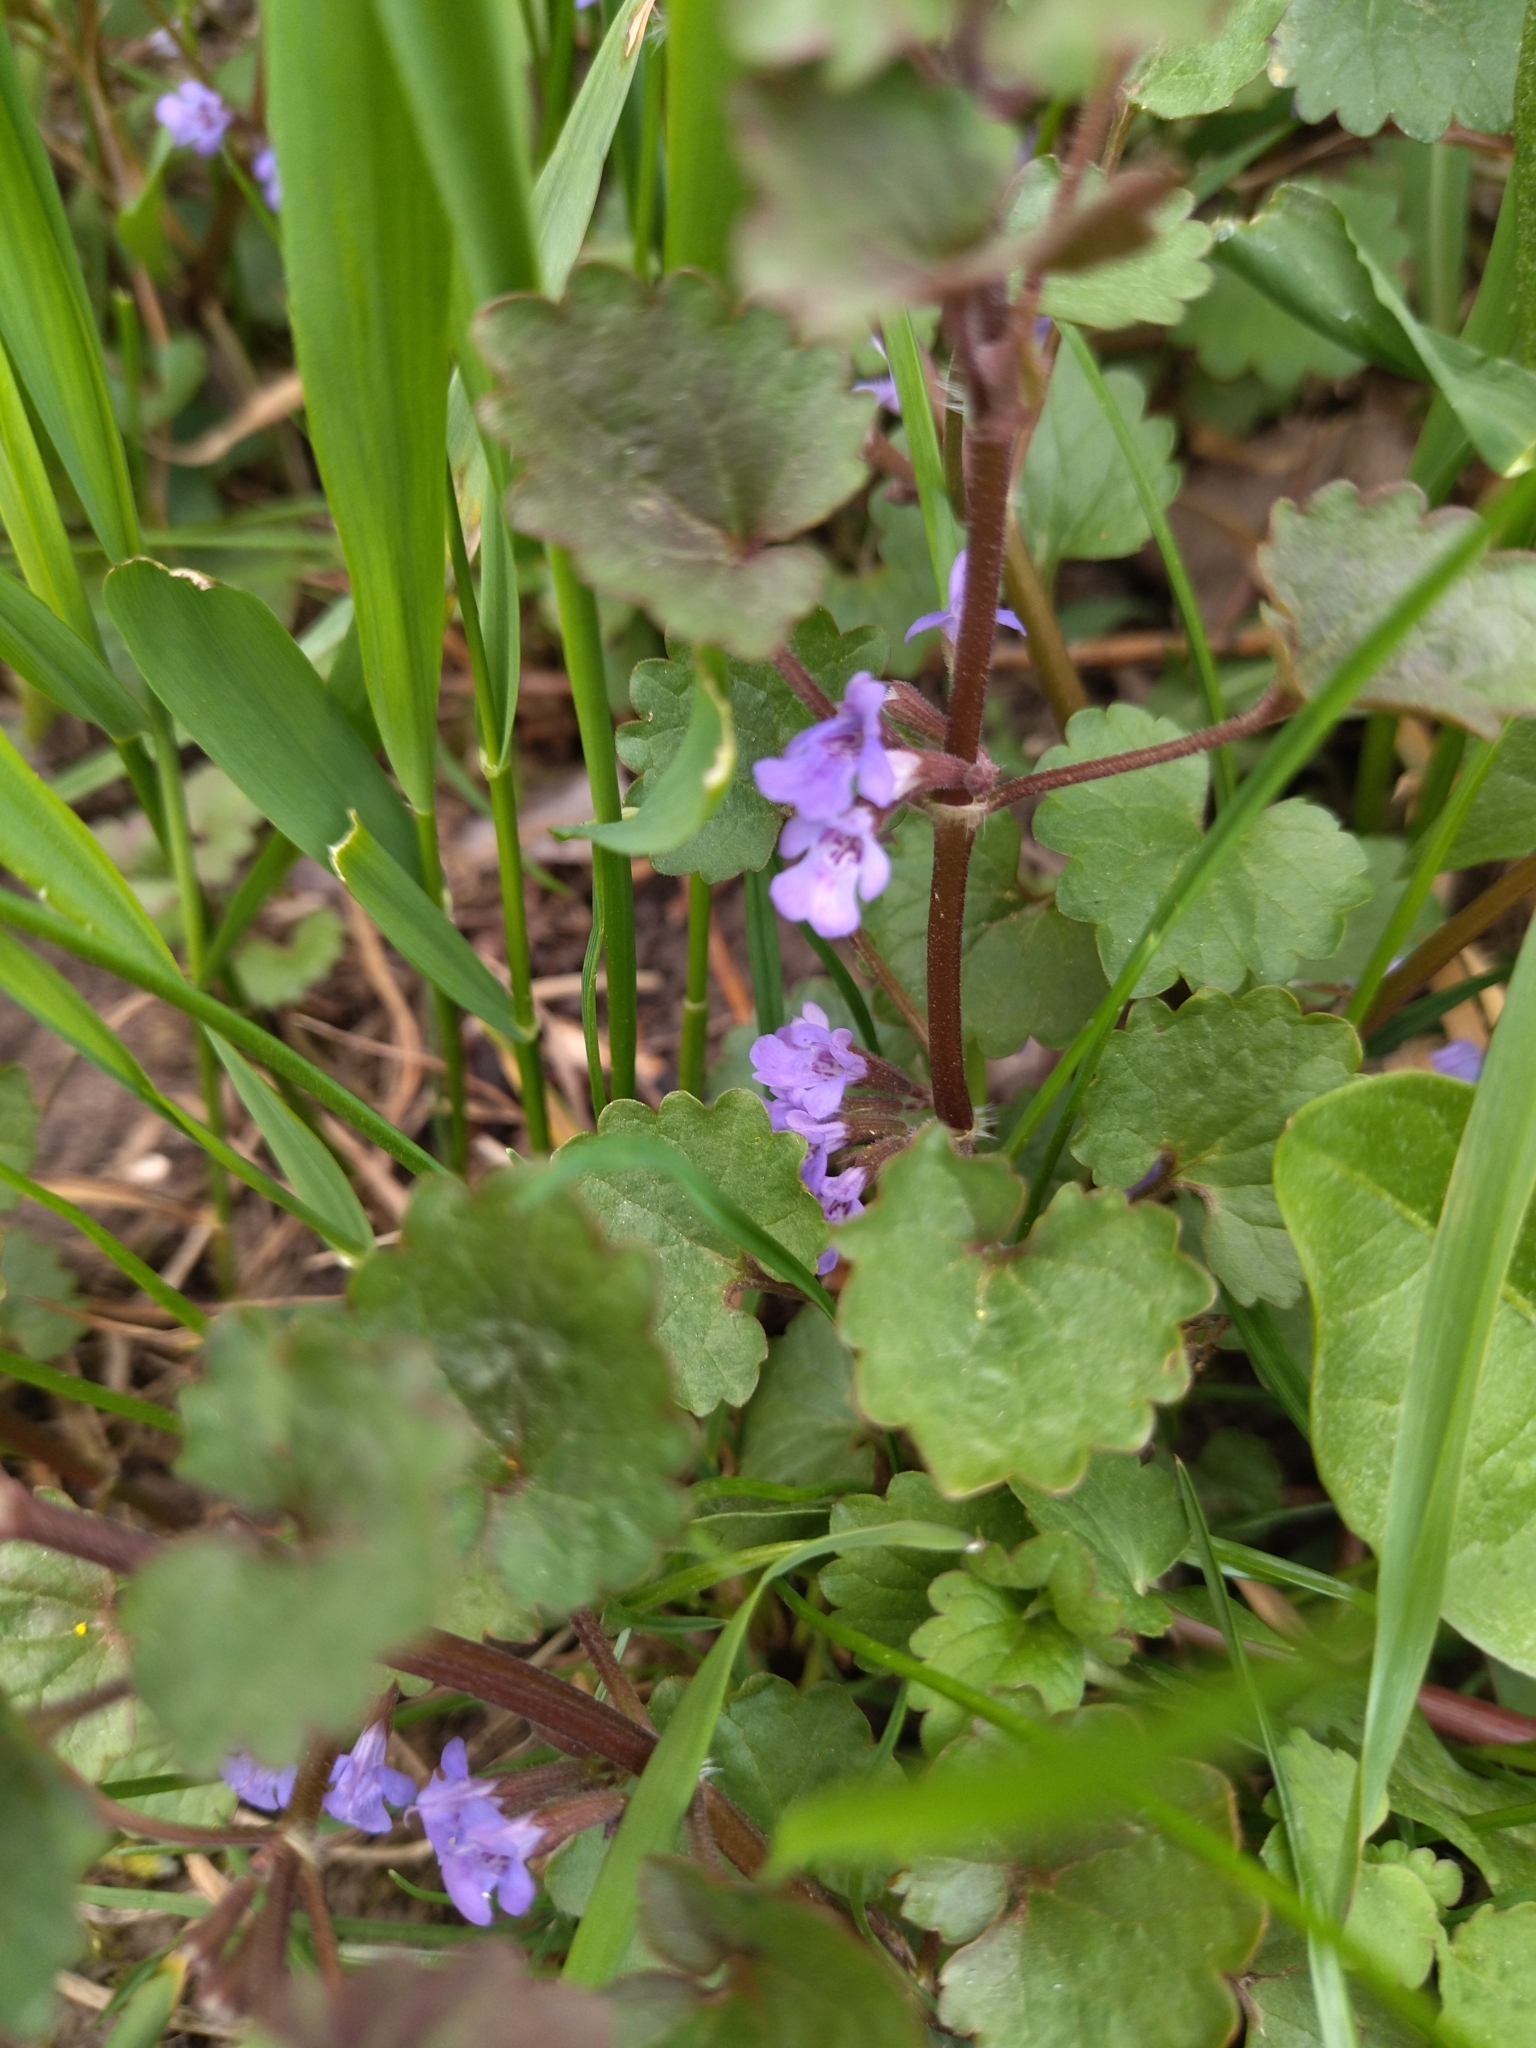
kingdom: Plantae
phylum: Tracheophyta
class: Magnoliopsida
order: Lamiales
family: Lamiaceae
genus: Glechoma
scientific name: Glechoma hederacea
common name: Ground ivy
